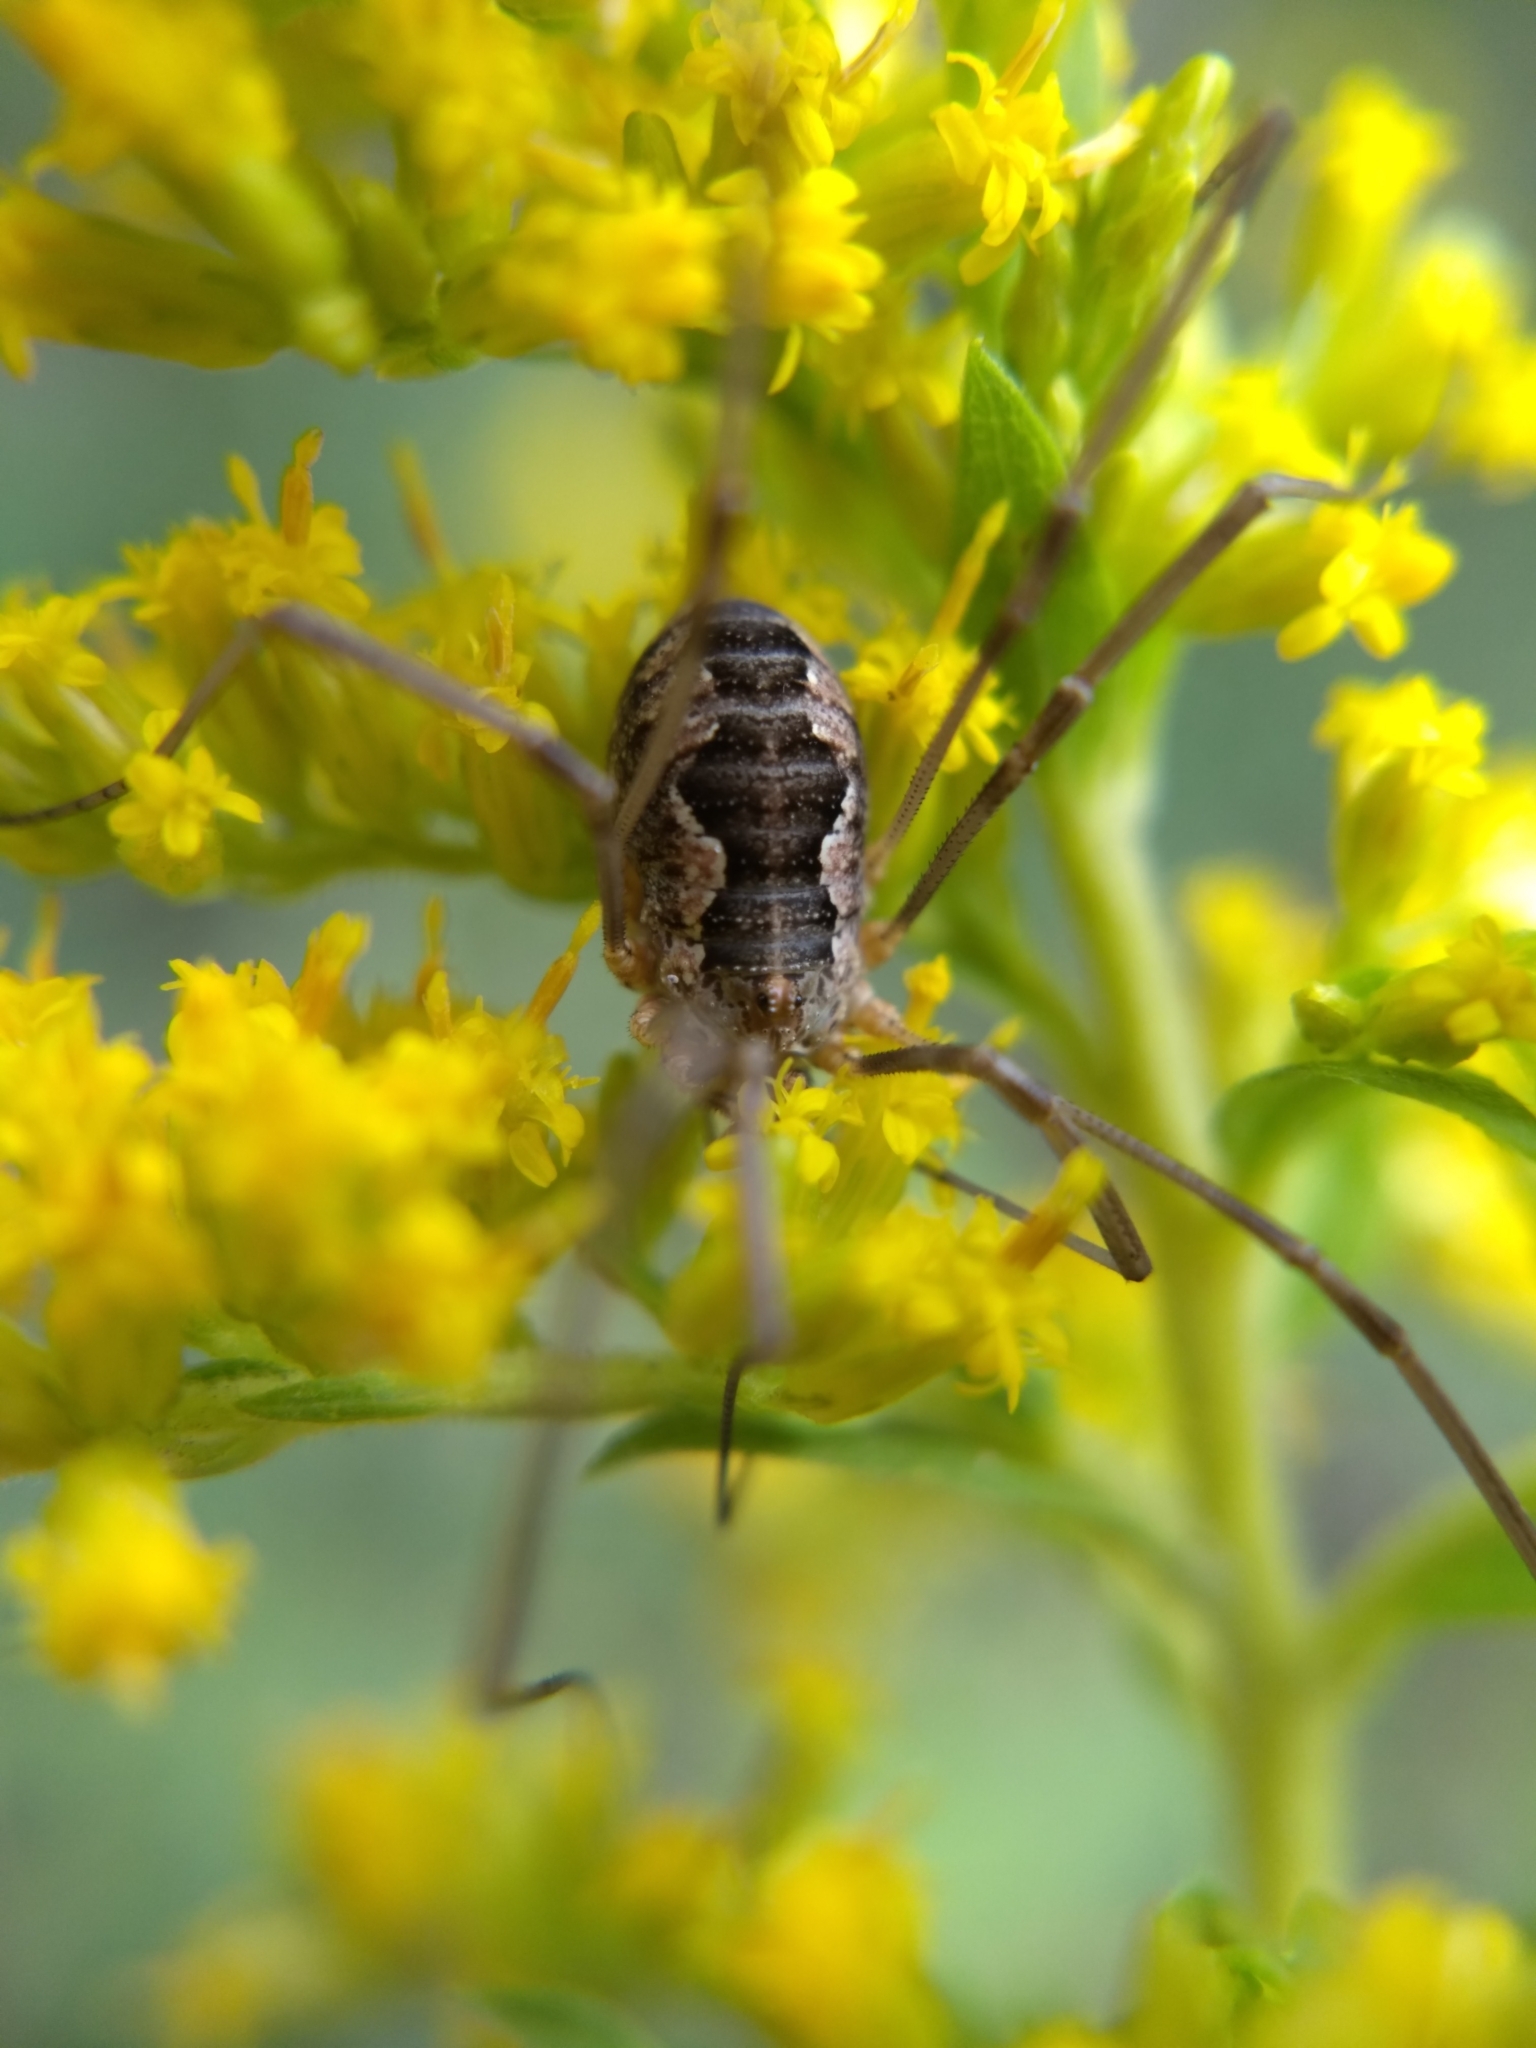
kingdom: Animalia
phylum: Arthropoda
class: Arachnida
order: Opiliones
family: Phalangiidae
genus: Phalangium
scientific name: Phalangium opilio
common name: Daddy longleg
